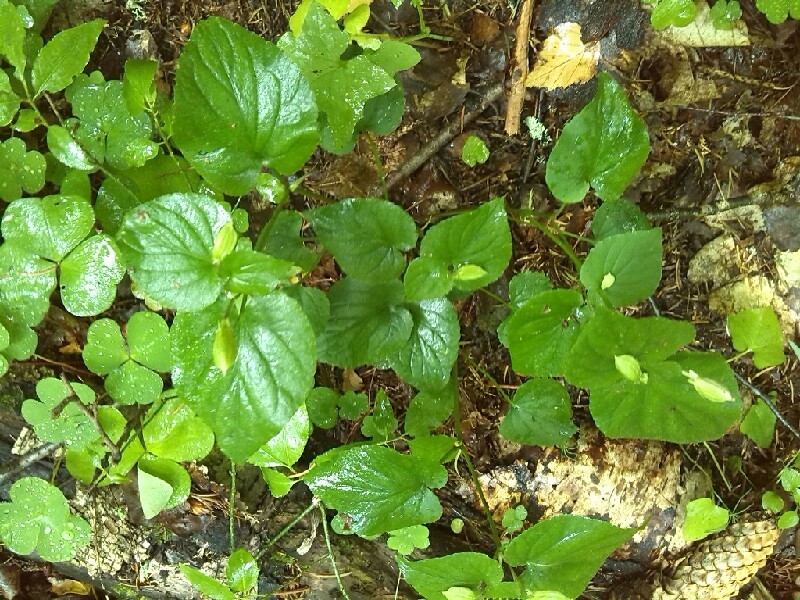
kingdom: Plantae
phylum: Tracheophyta
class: Magnoliopsida
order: Malpighiales
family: Violaceae
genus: Viola
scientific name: Viola mirabilis
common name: Wonder violet
